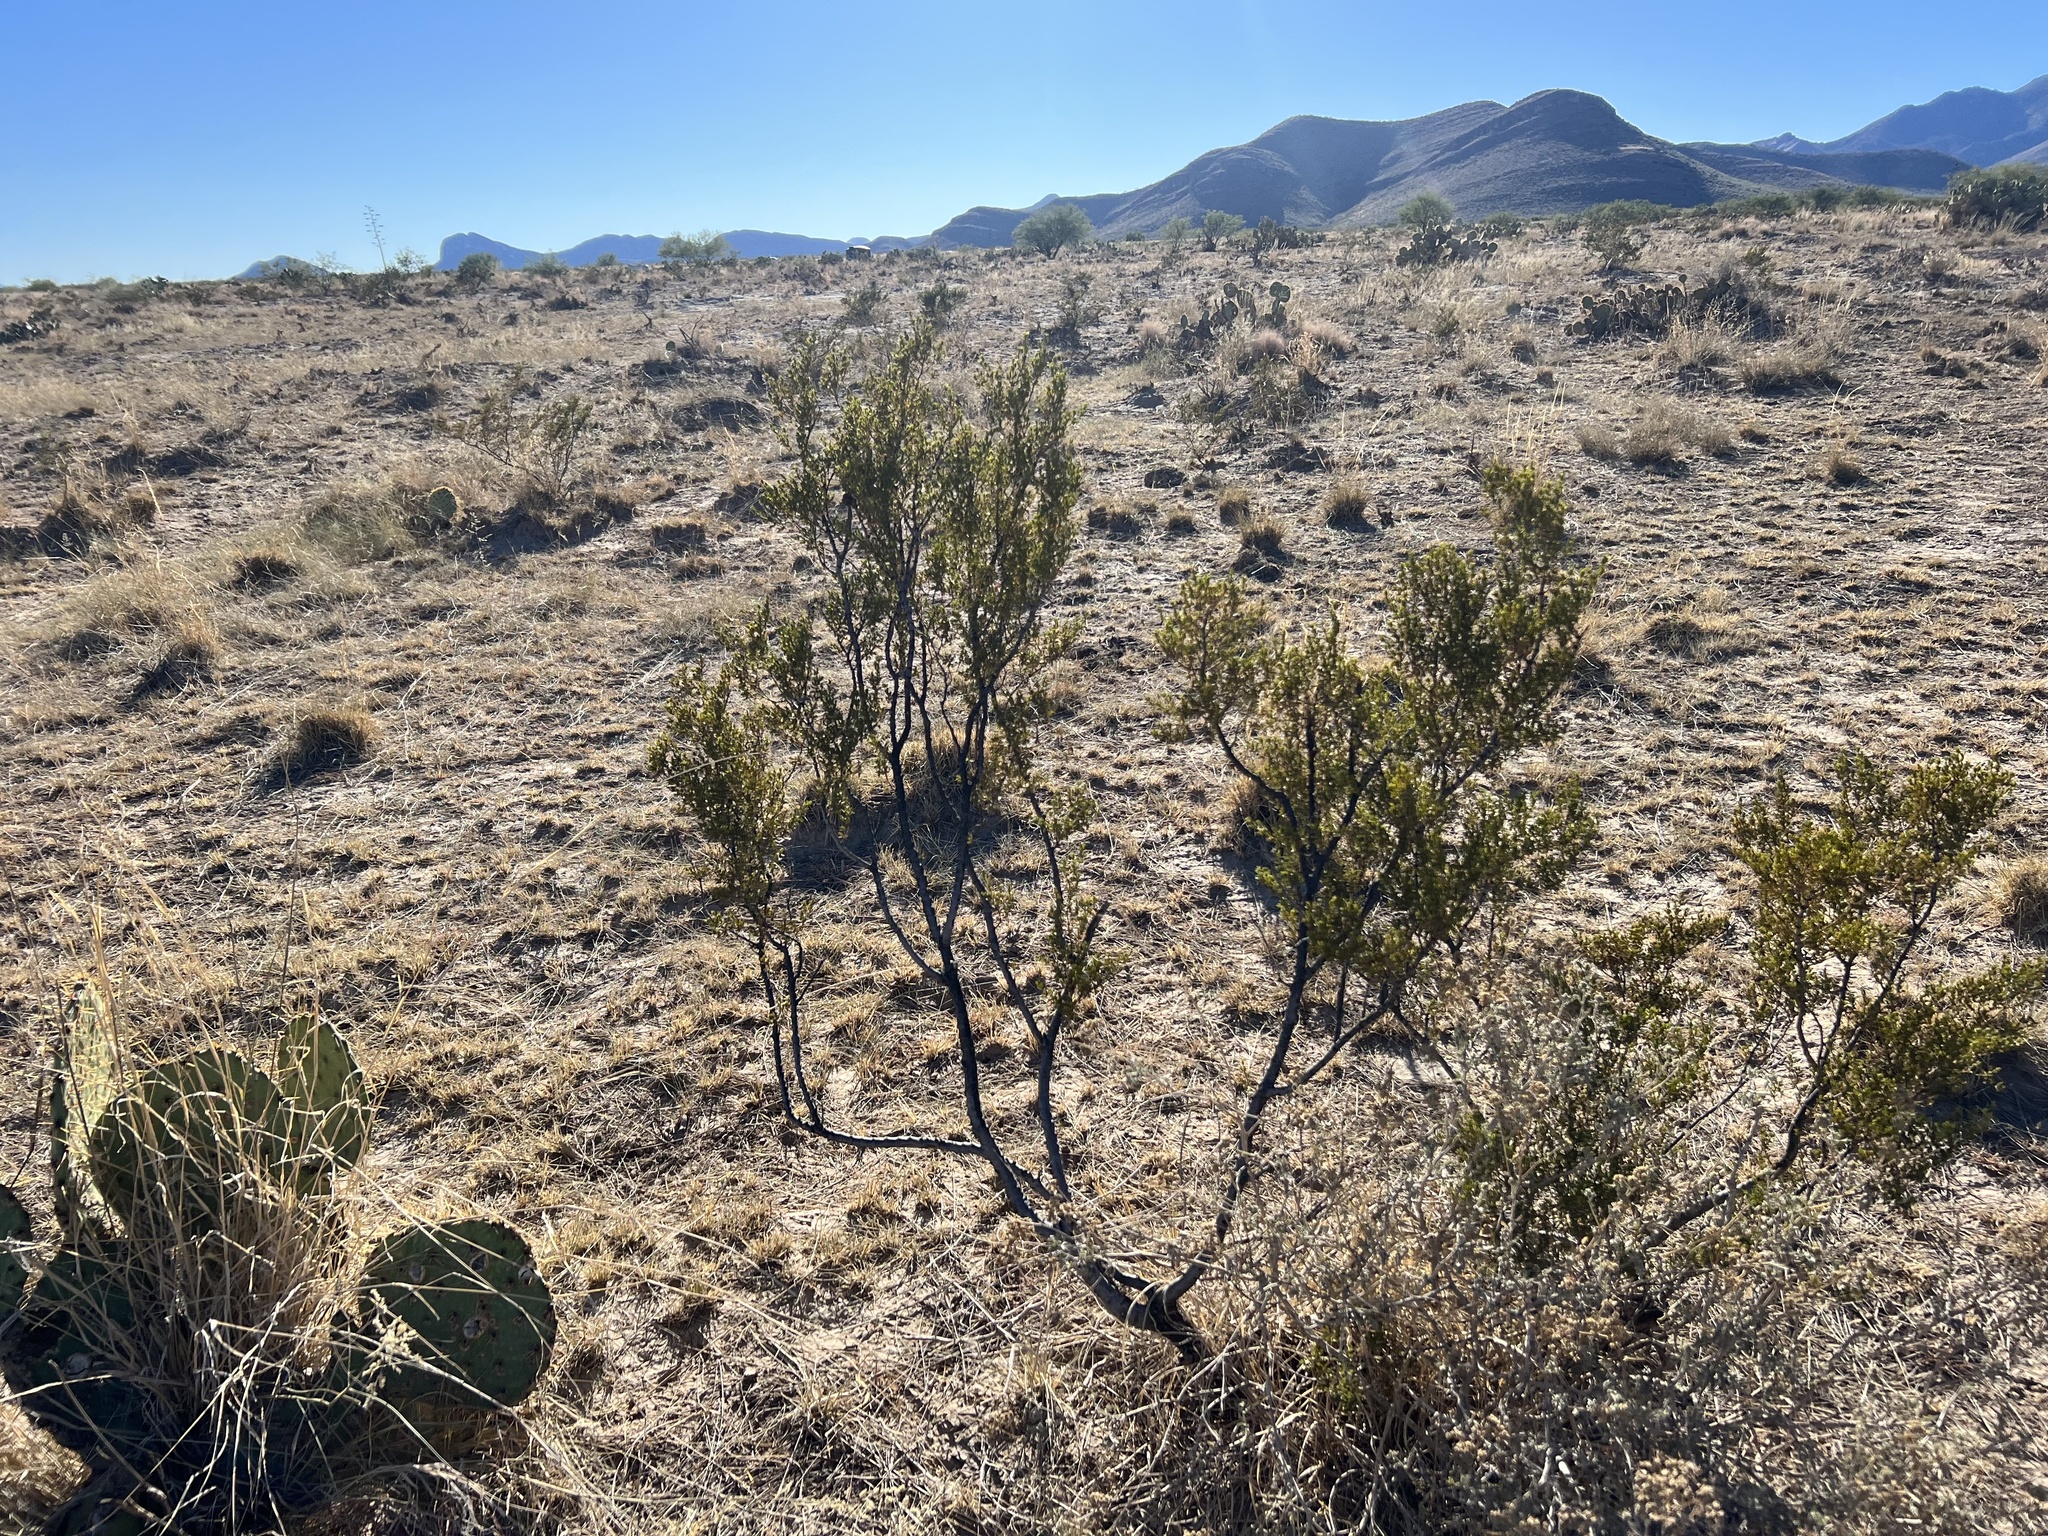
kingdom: Plantae
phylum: Tracheophyta
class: Magnoliopsida
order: Zygophyllales
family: Zygophyllaceae
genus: Larrea
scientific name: Larrea tridentata
